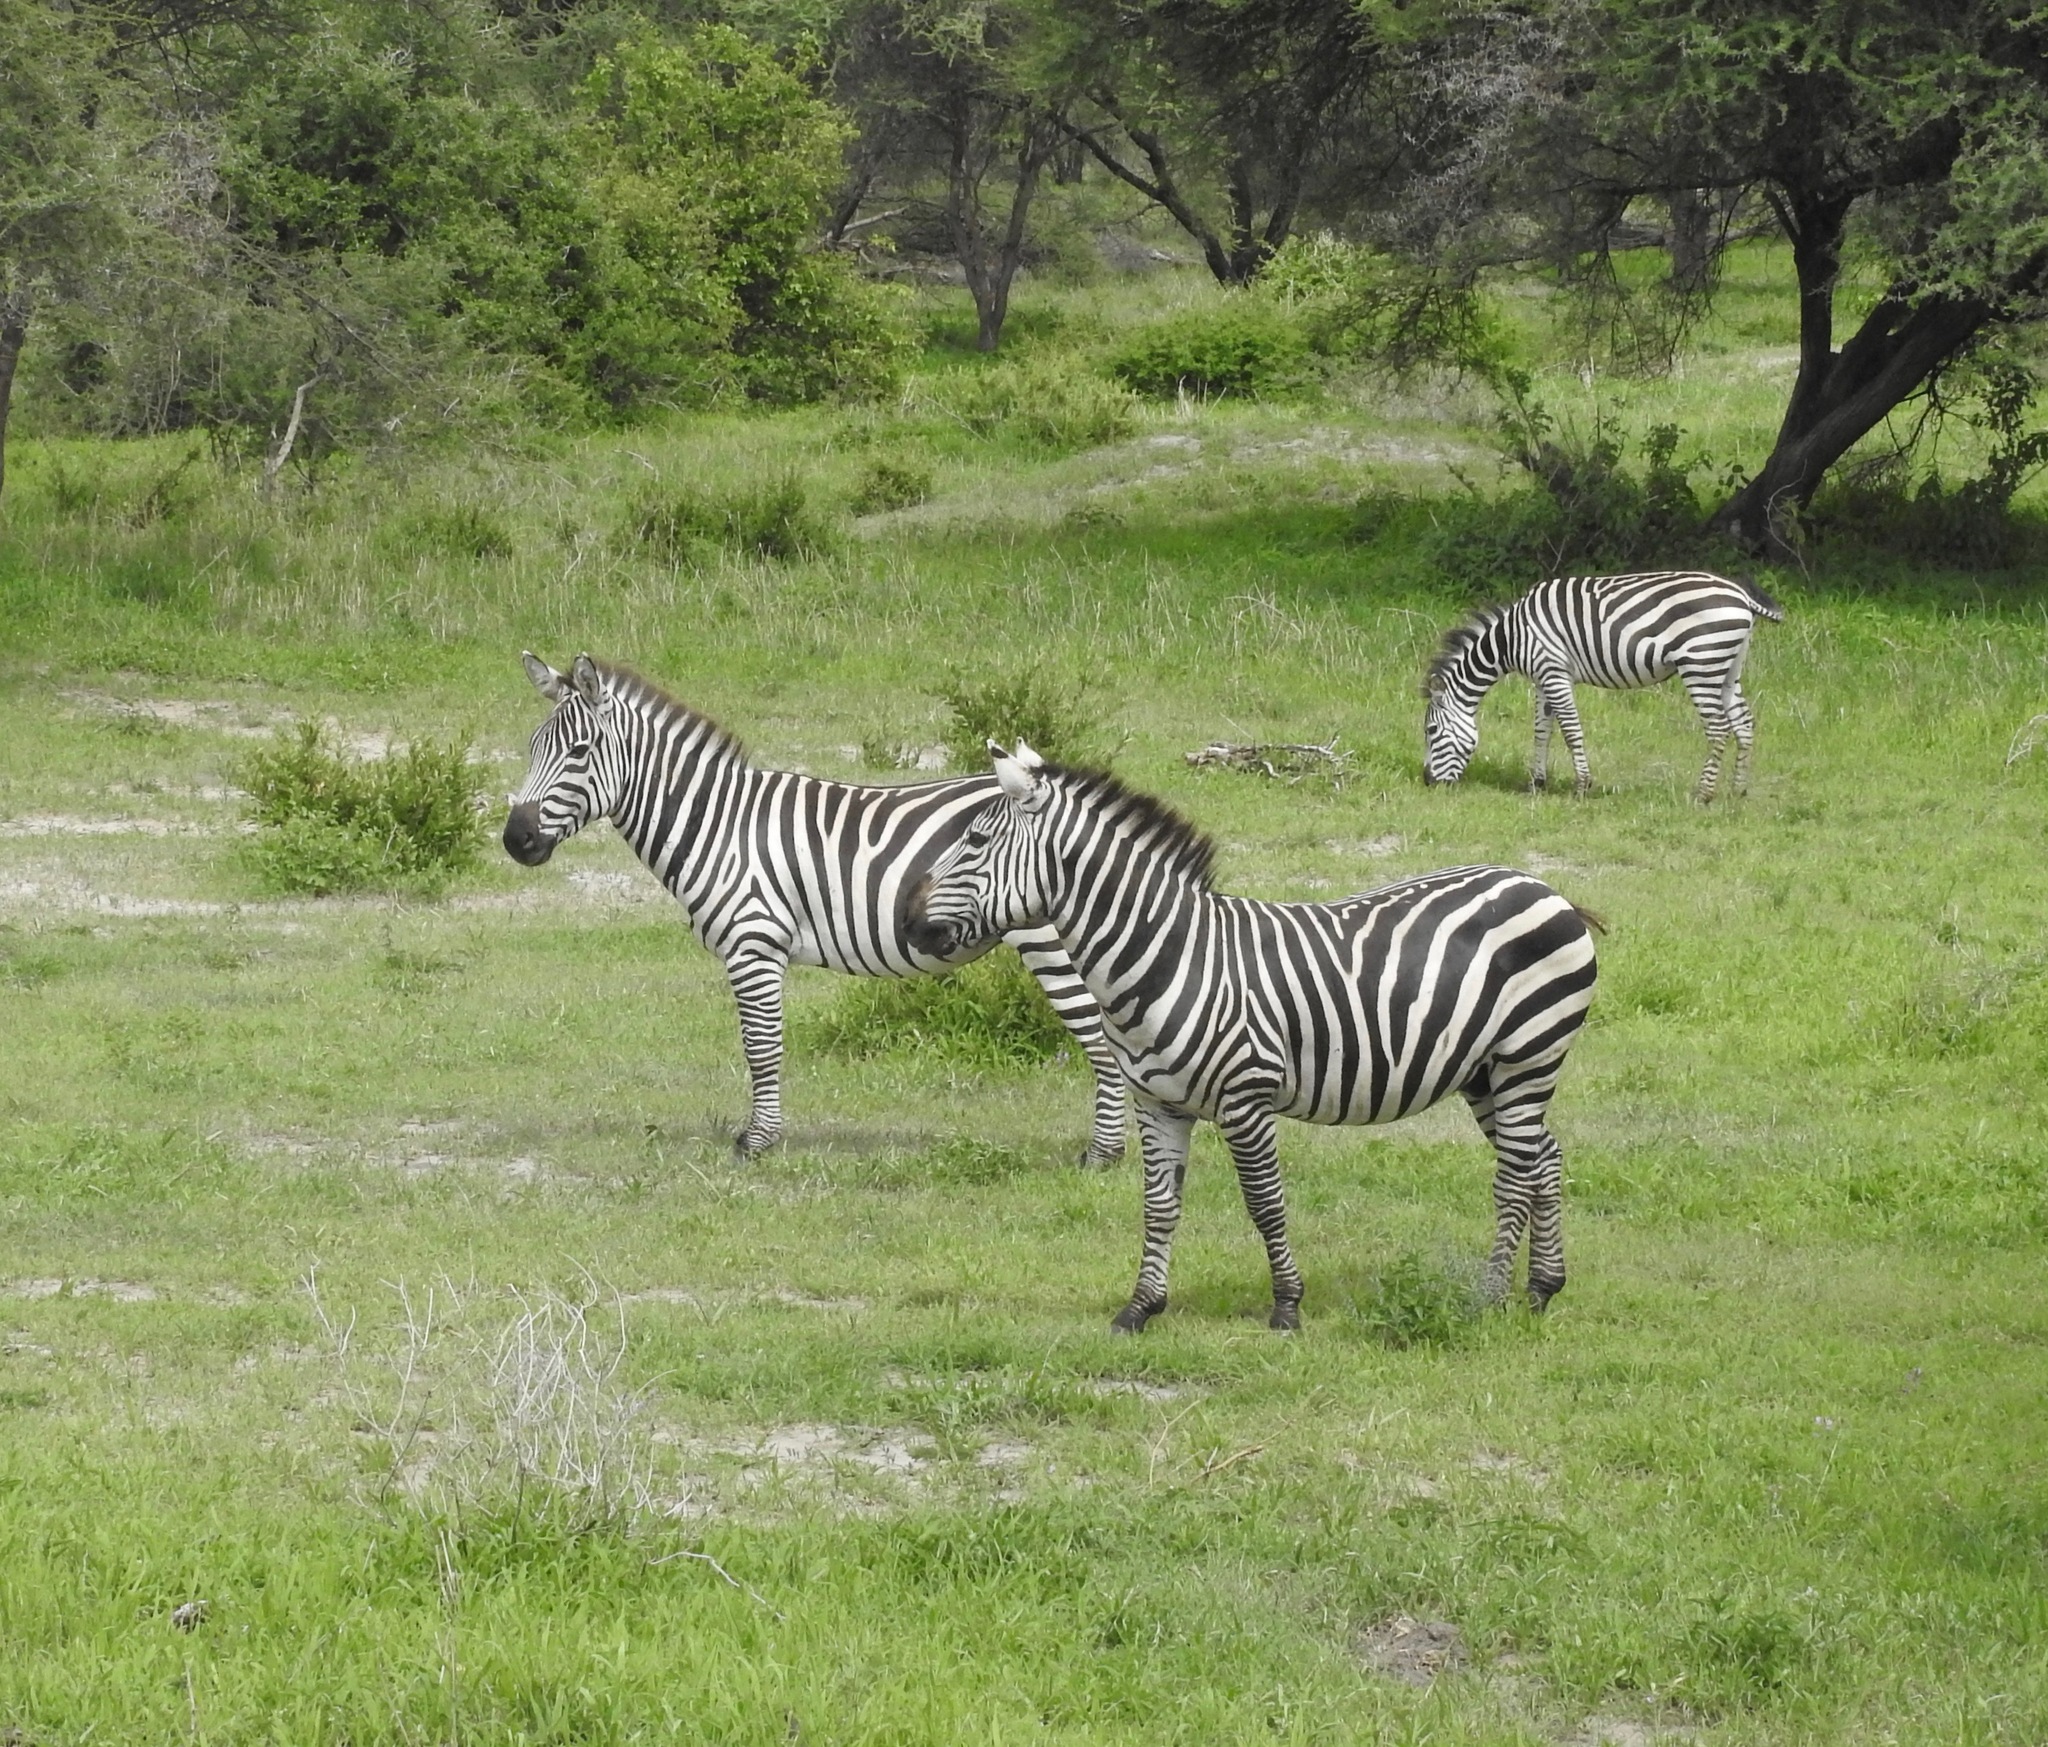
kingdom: Animalia
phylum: Chordata
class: Mammalia
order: Perissodactyla
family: Equidae
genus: Equus
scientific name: Equus quagga
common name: Plains zebra
